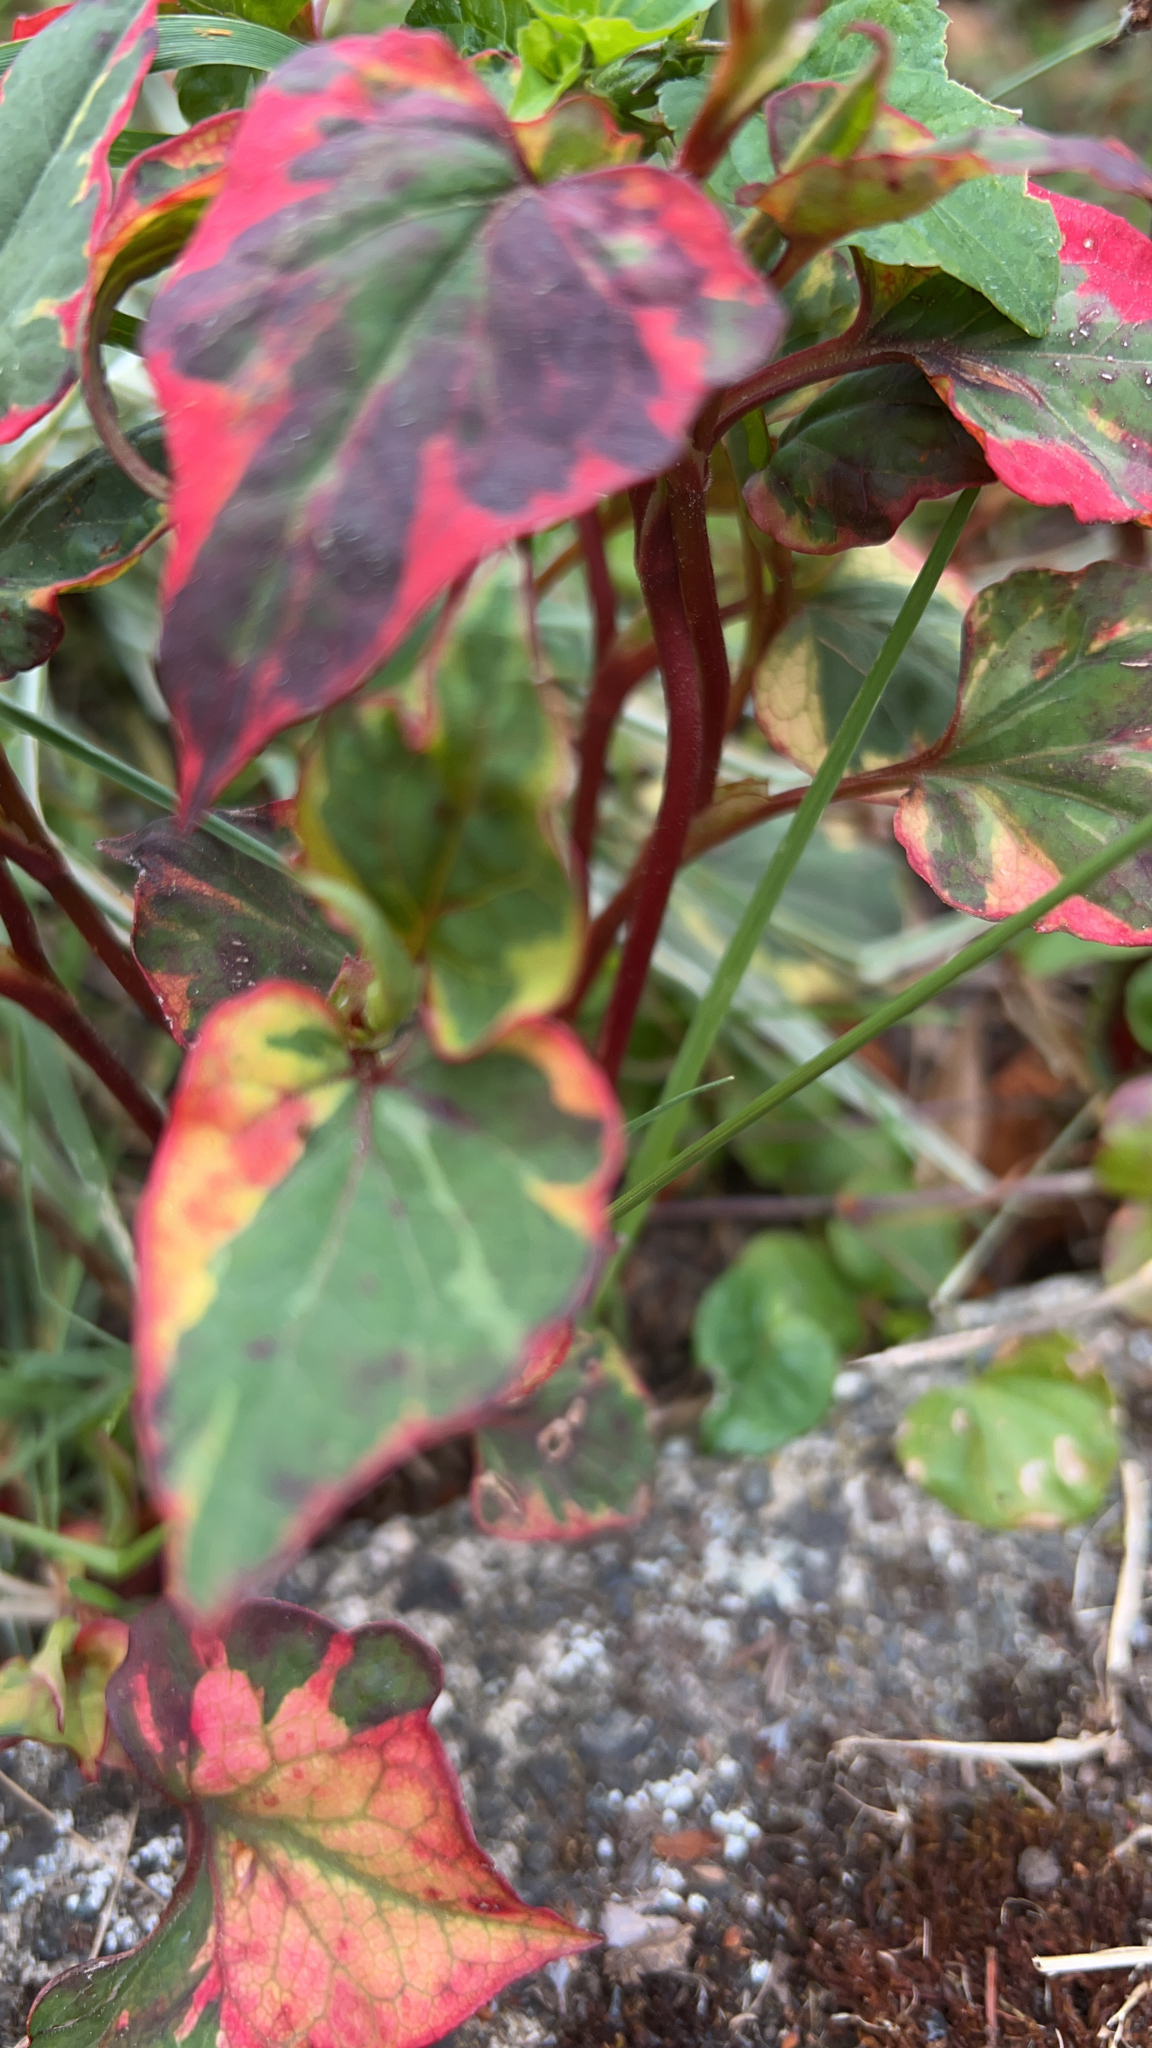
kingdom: Plantae
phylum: Tracheophyta
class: Magnoliopsida
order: Piperales
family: Saururaceae
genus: Houttuynia
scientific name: Houttuynia cordata
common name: Chameleon
